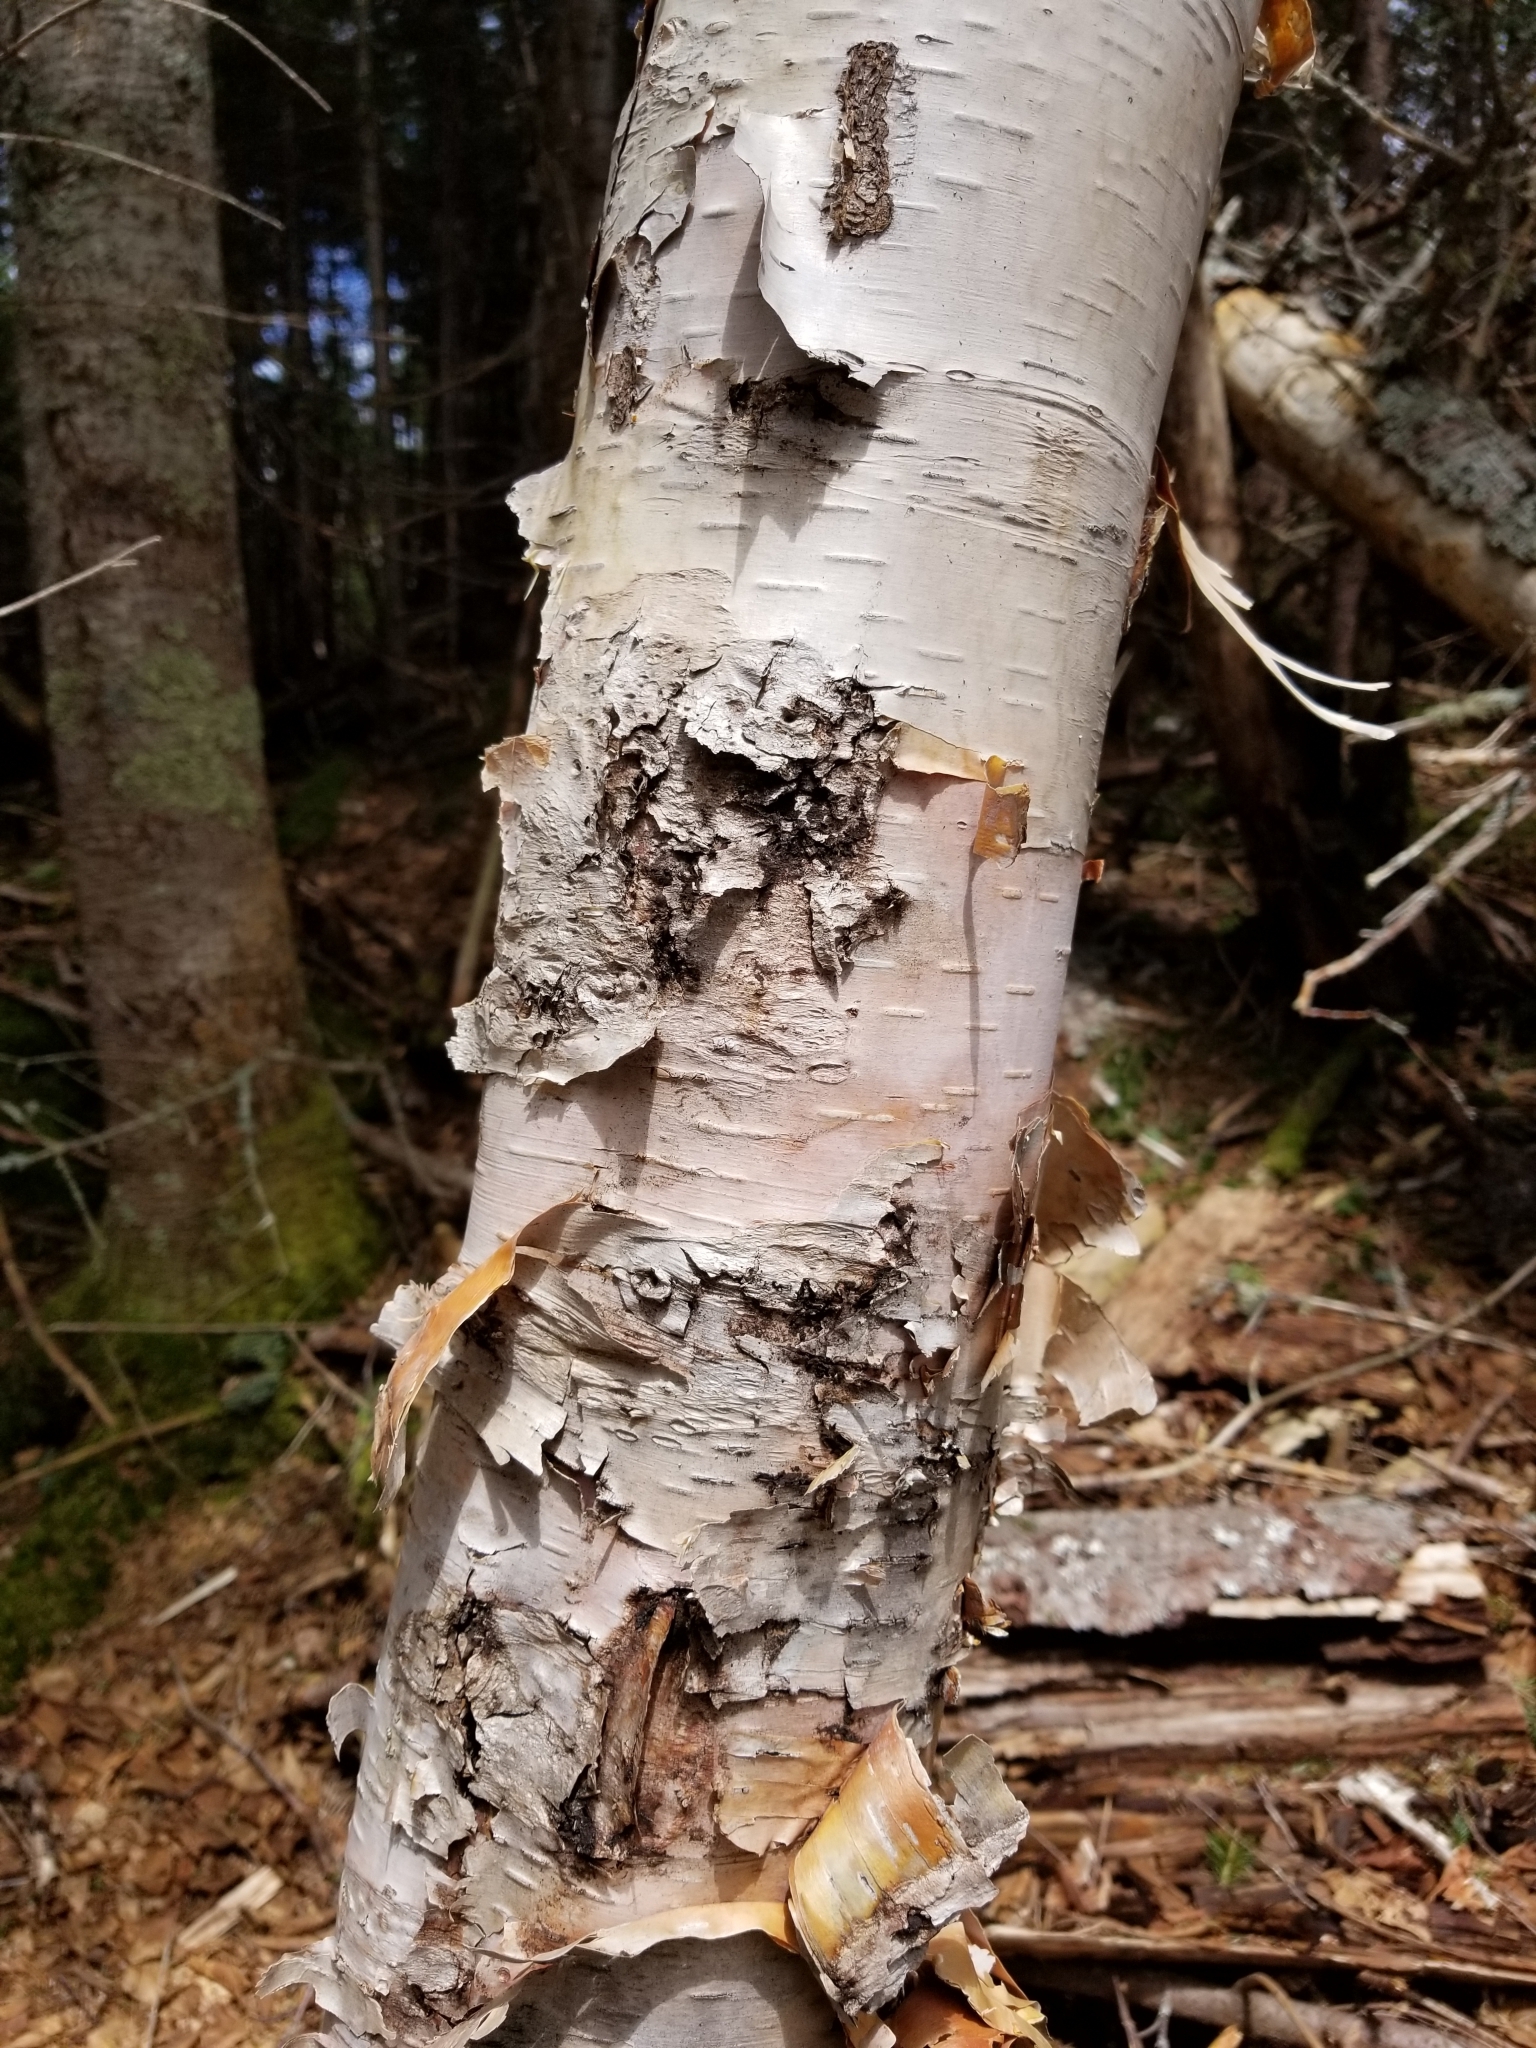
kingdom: Plantae
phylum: Tracheophyta
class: Magnoliopsida
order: Fagales
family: Betulaceae
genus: Betula
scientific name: Betula cordifolia
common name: Mountain white birch
